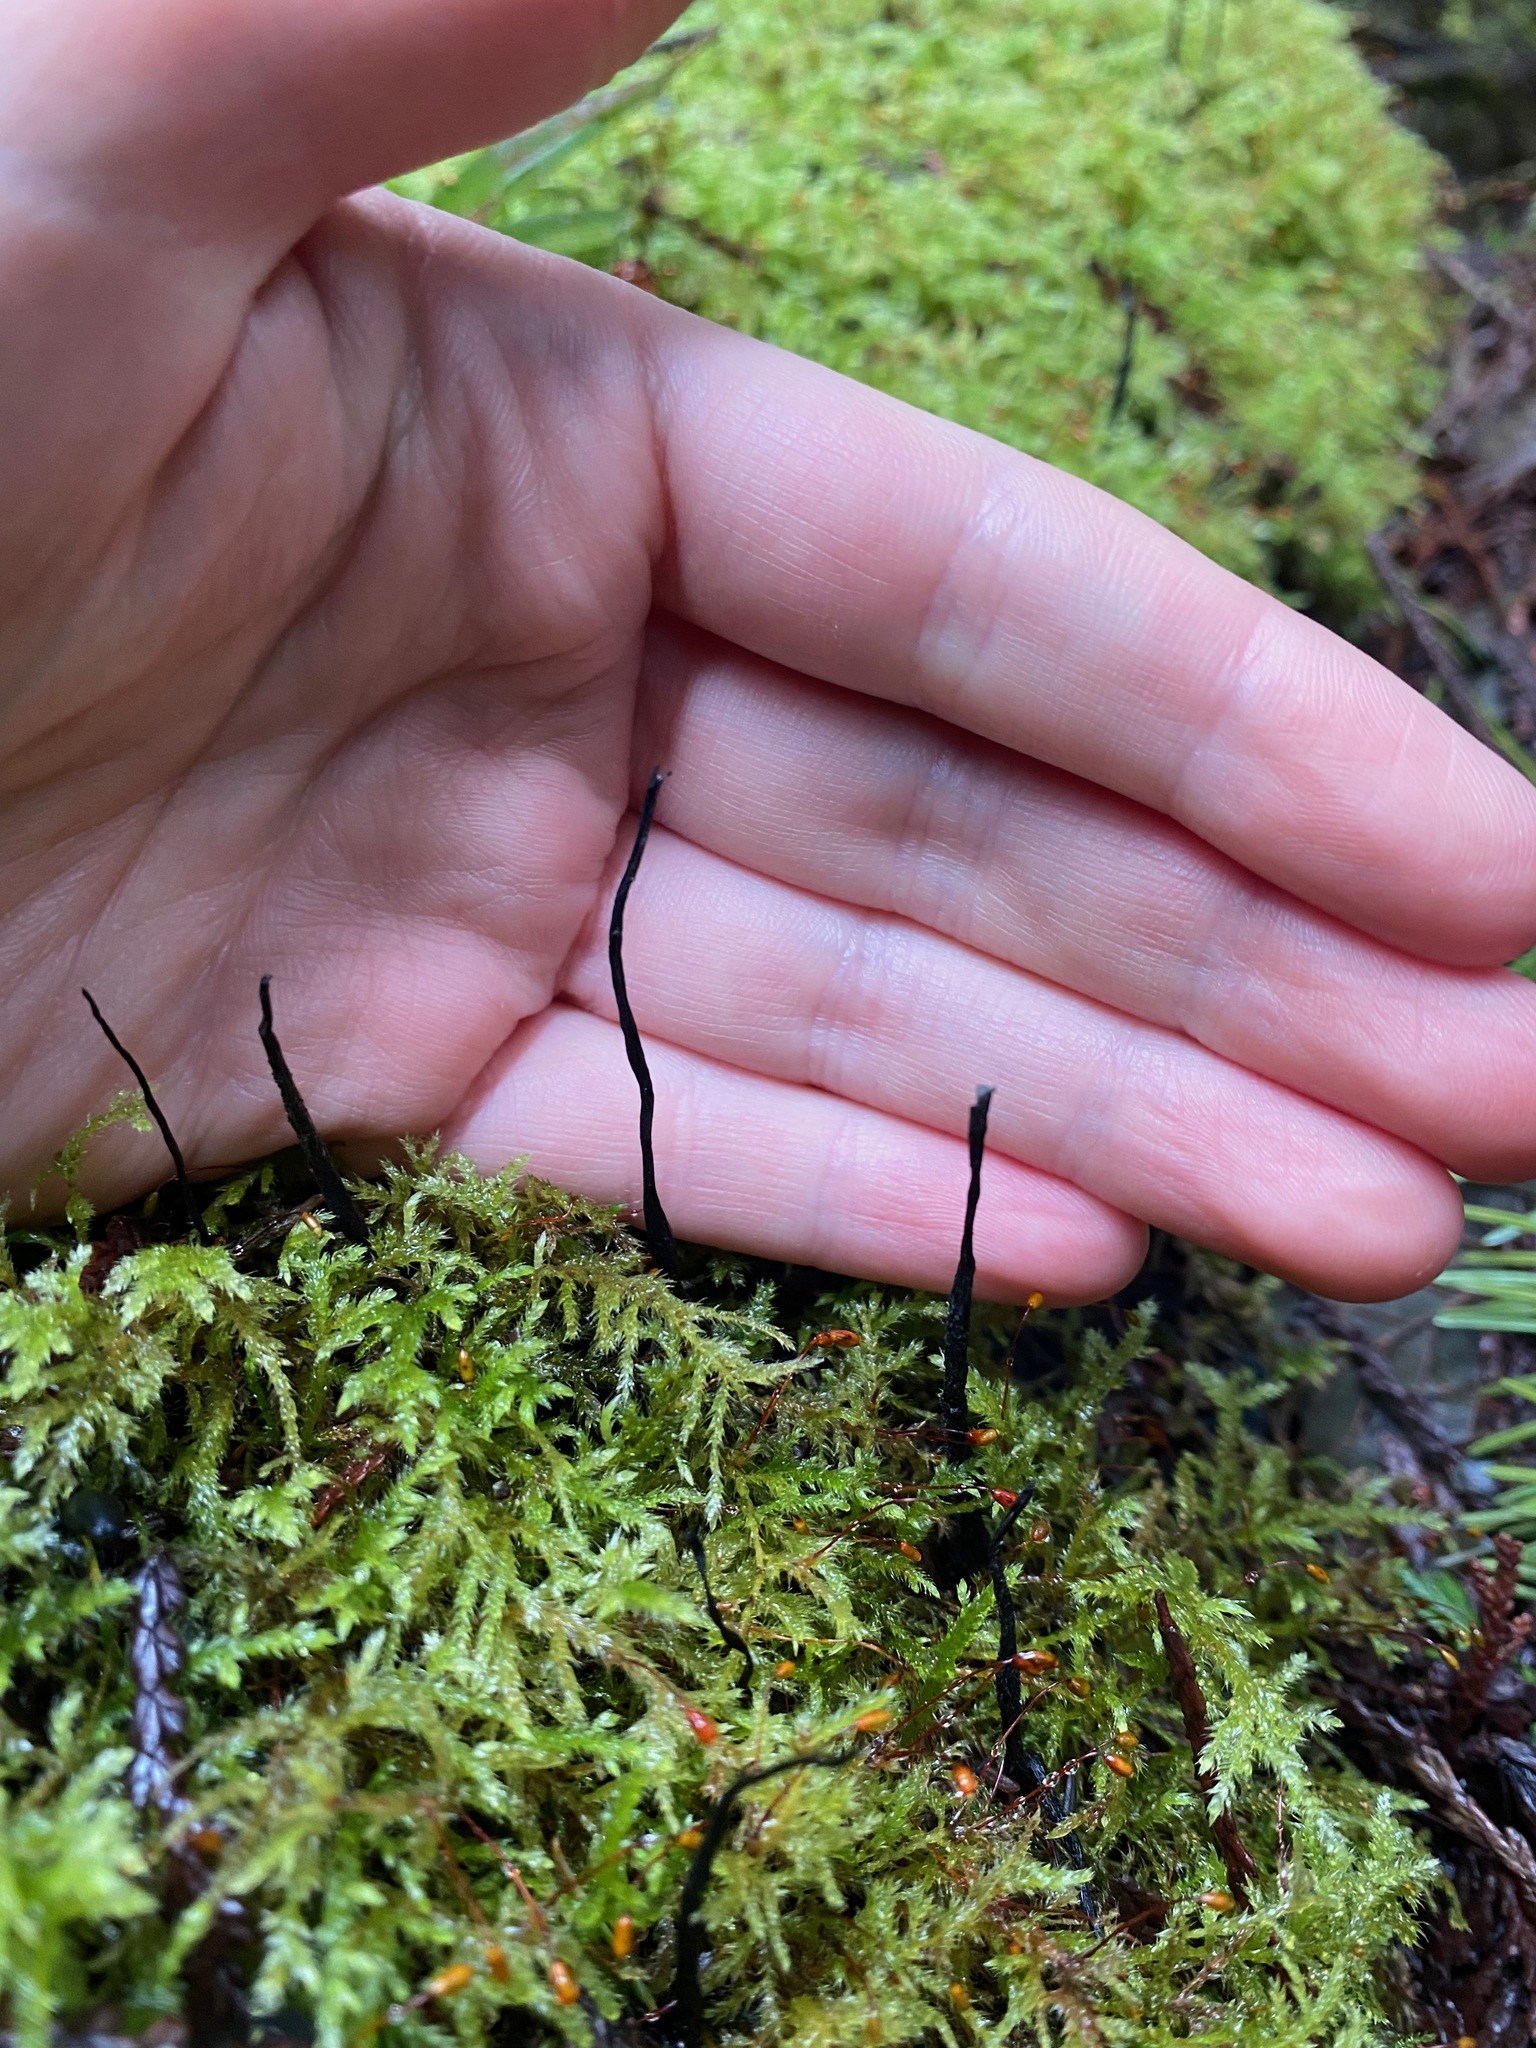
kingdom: Fungi
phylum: Ascomycota
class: Sordariomycetes
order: Xylariales
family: Xylariaceae
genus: Xylaria
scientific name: Xylaria hypoxylon
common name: Candle-snuff fungus
